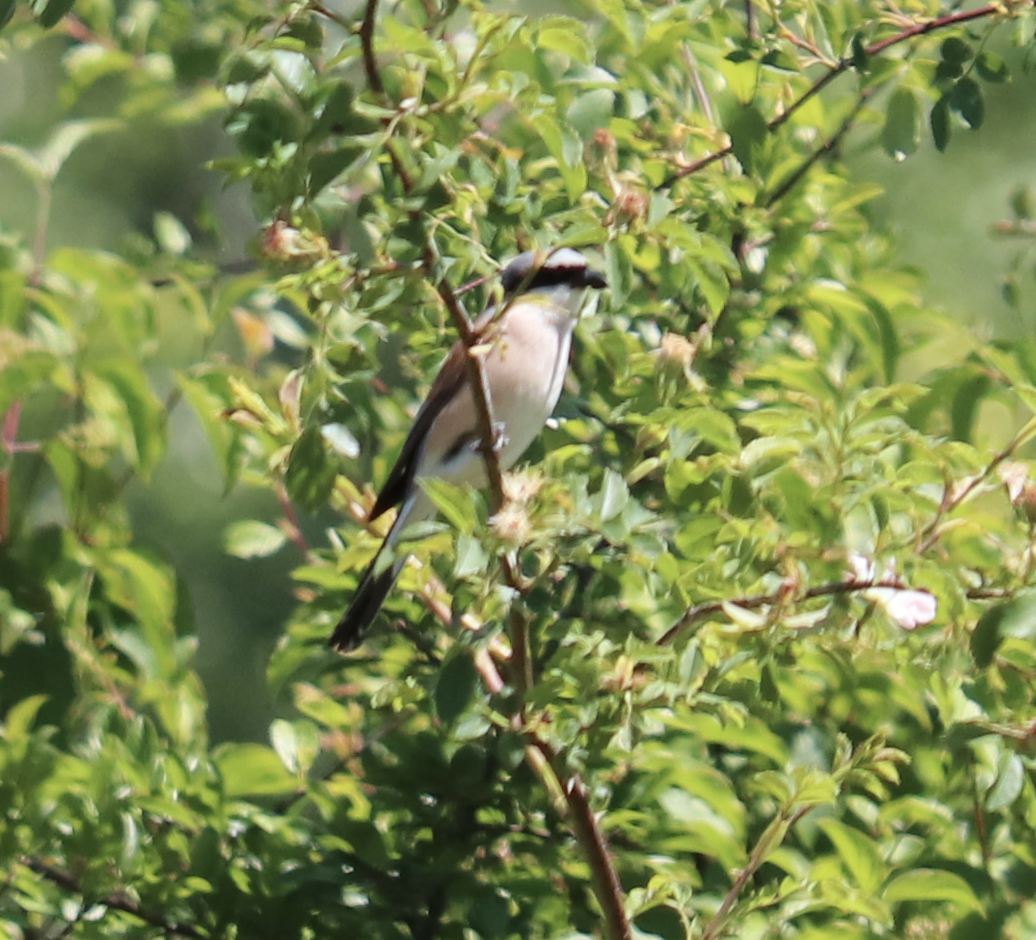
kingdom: Animalia
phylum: Chordata
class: Aves
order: Passeriformes
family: Laniidae
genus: Lanius
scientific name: Lanius collurio
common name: Red-backed shrike
